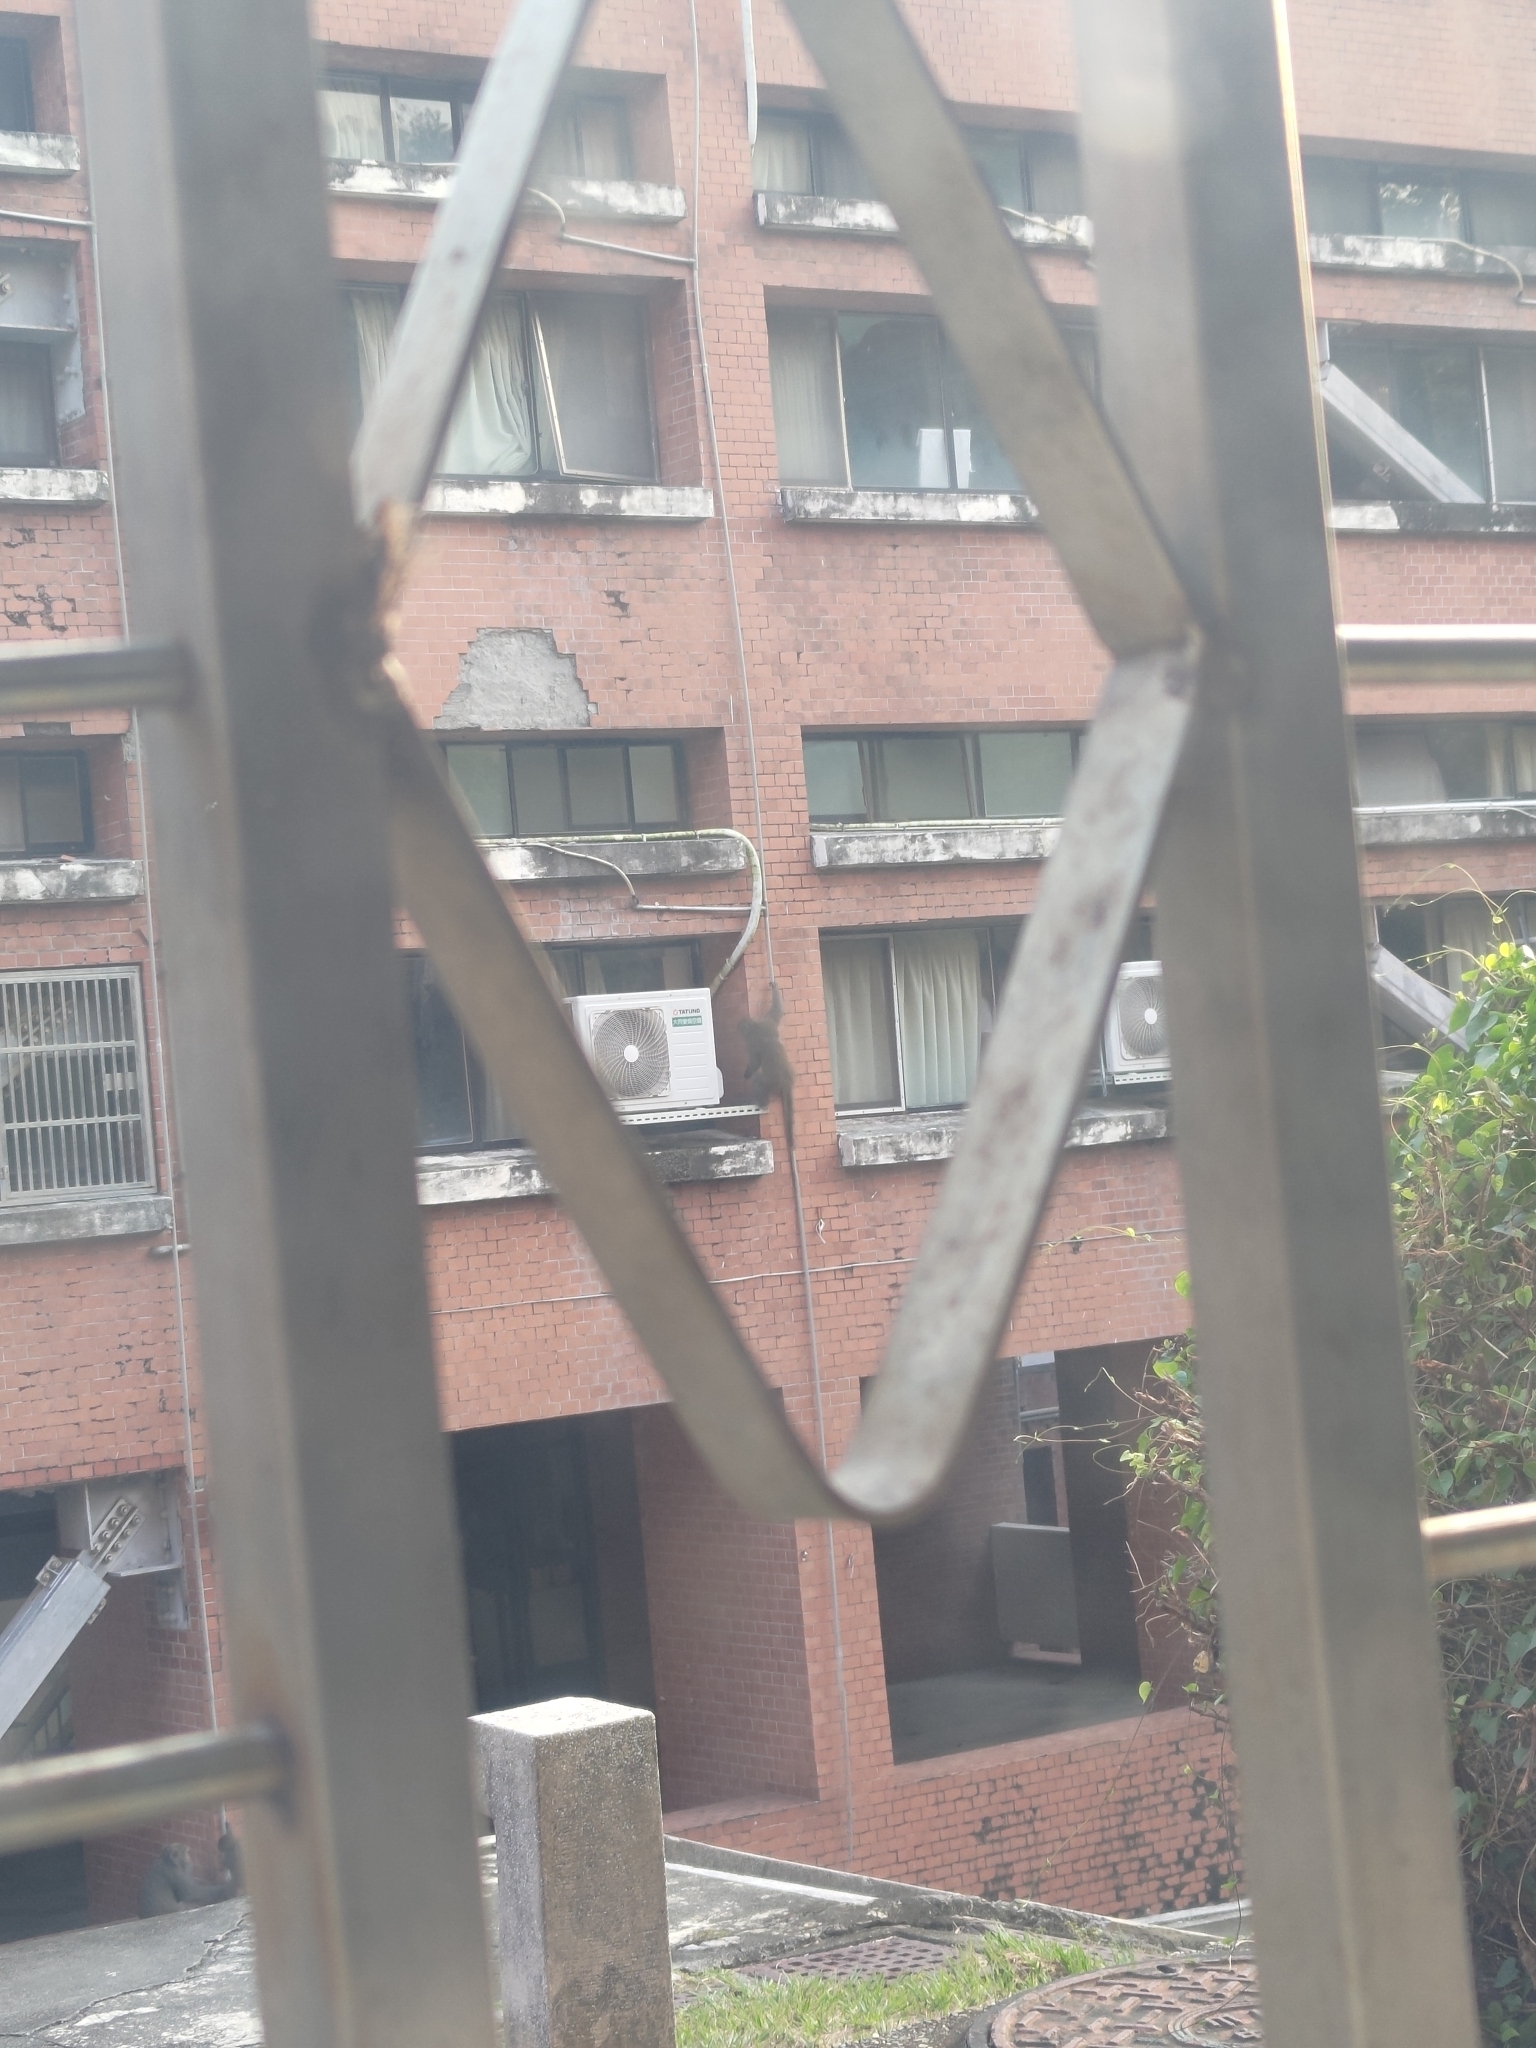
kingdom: Animalia
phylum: Chordata
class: Mammalia
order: Primates
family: Cercopithecidae
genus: Macaca
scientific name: Macaca cyclopis
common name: Formosan rock macaque
